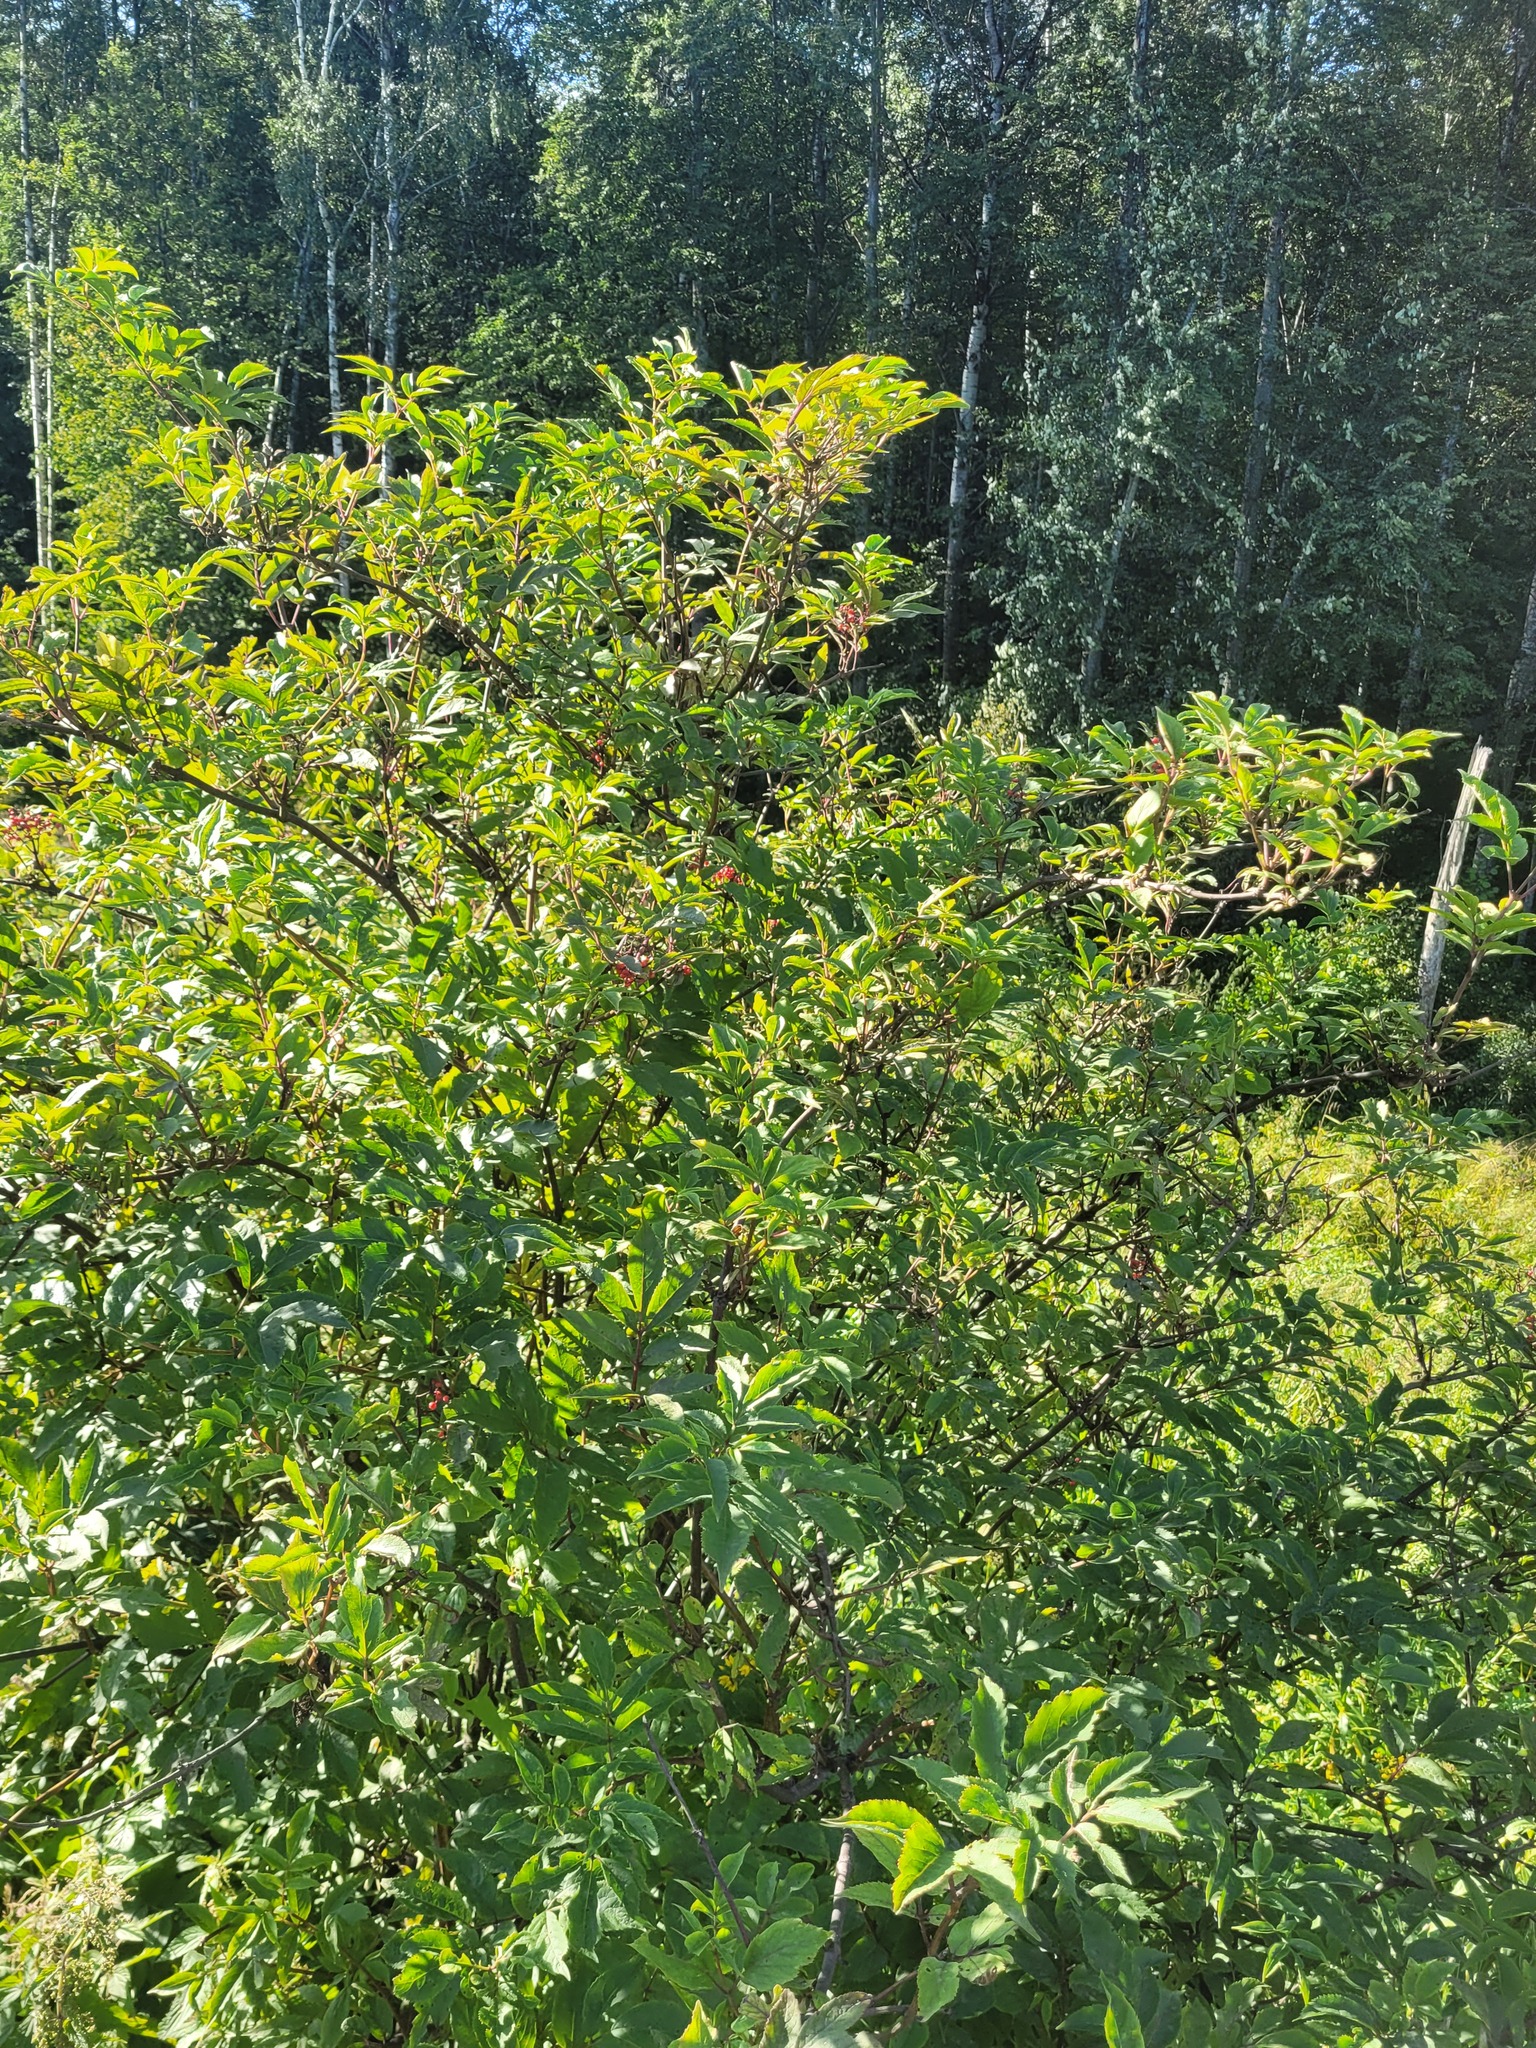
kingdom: Plantae
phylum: Tracheophyta
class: Magnoliopsida
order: Dipsacales
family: Viburnaceae
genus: Sambucus
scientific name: Sambucus racemosa
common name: Red-berried elder
